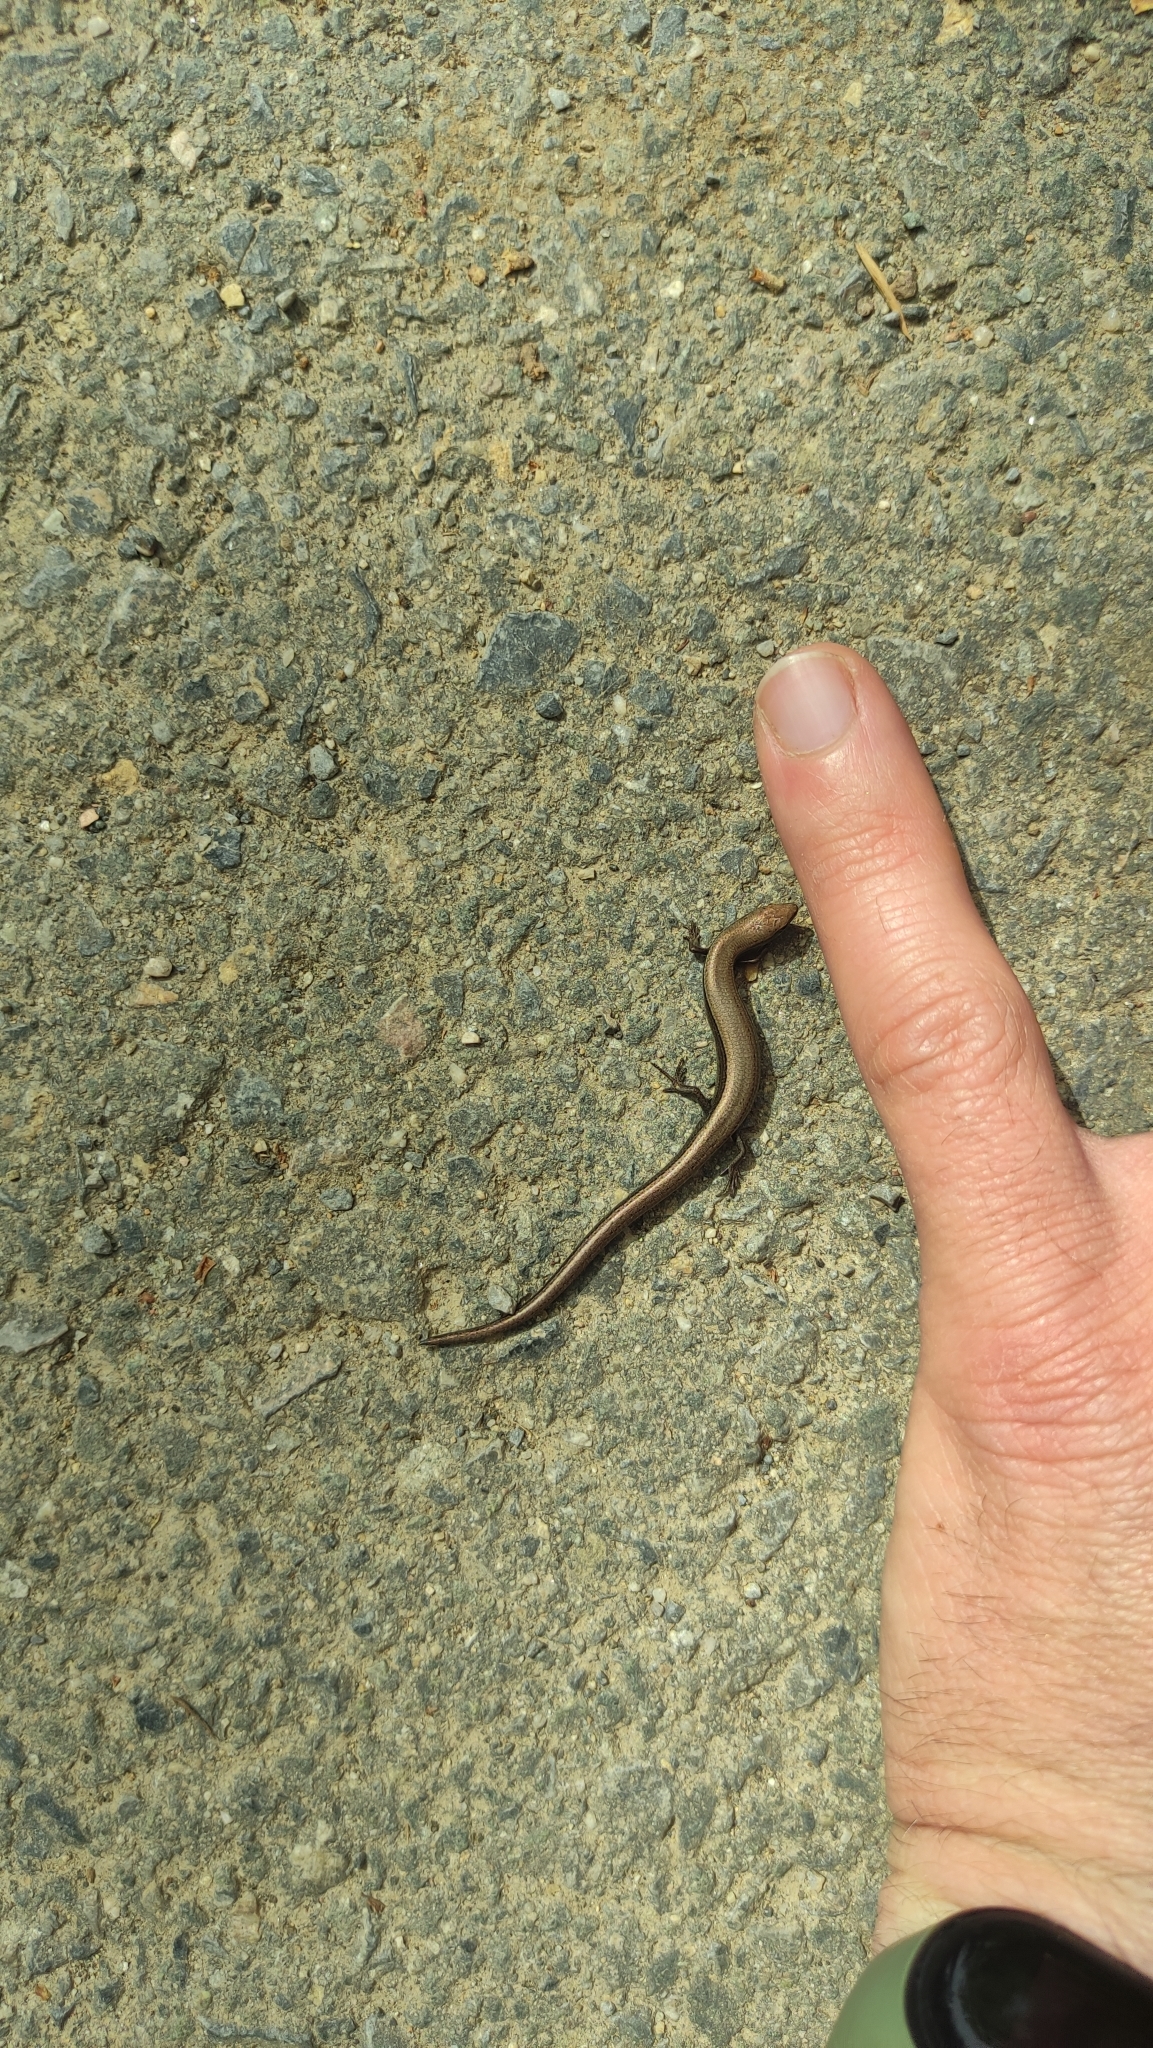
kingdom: Animalia
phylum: Chordata
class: Squamata
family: Scincidae
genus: Ablepharus
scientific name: Ablepharus kitaibelii
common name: Juniper skink
